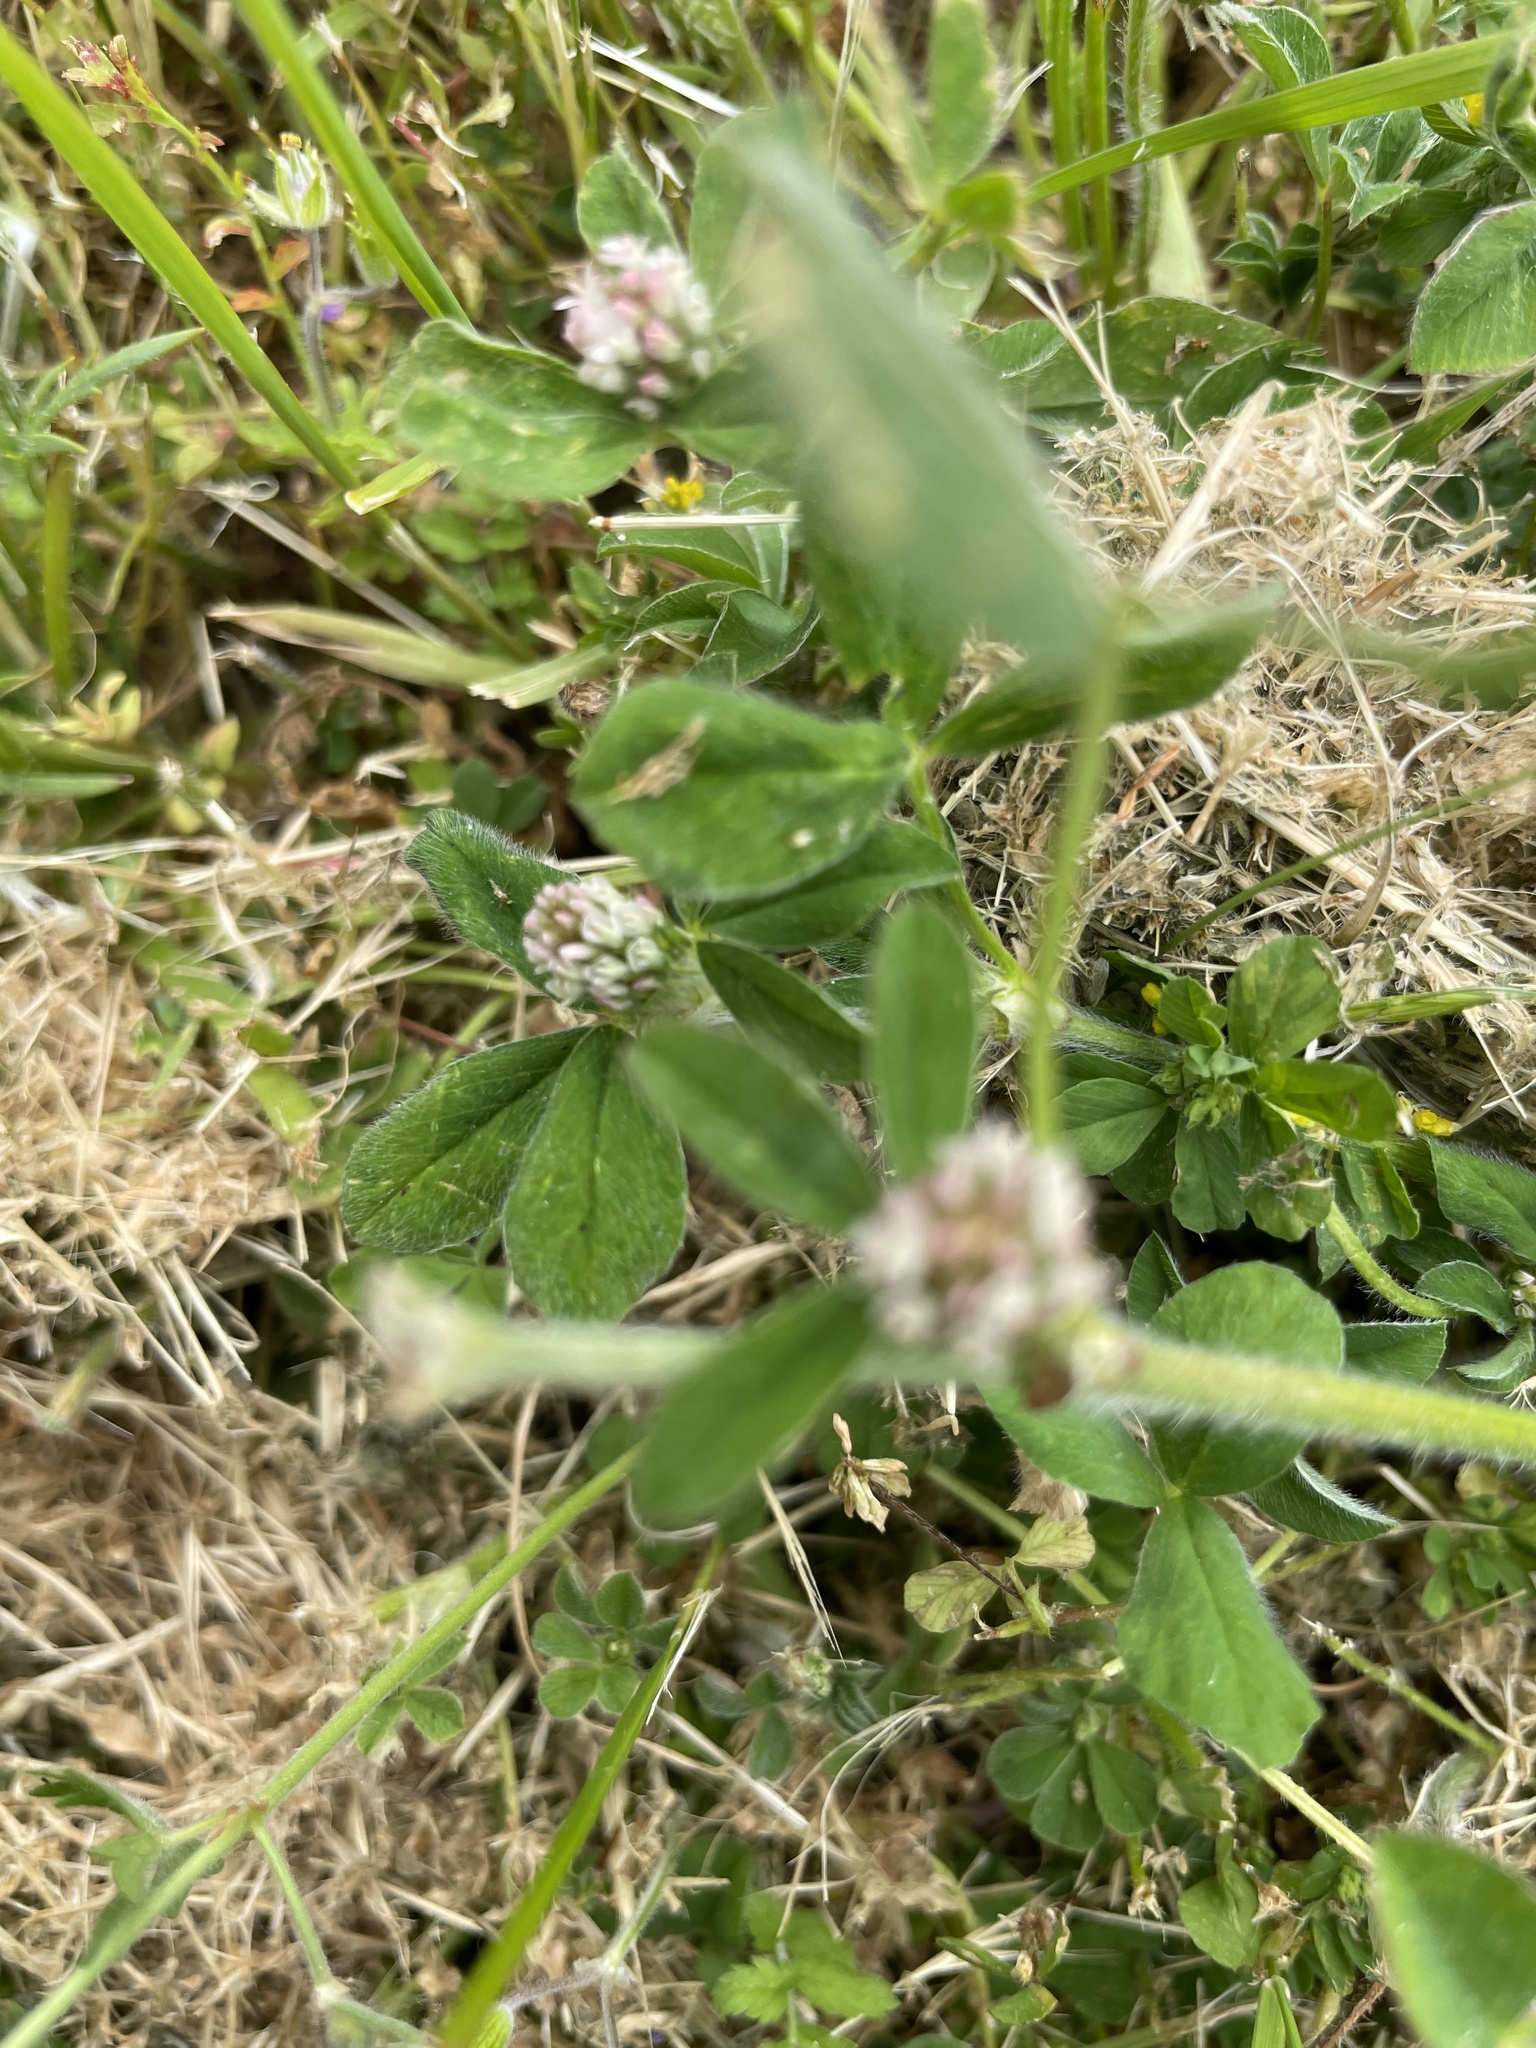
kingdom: Plantae
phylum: Tracheophyta
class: Magnoliopsida
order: Fabales
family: Fabaceae
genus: Trifolium
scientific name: Trifolium striatum
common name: Knotted clover
